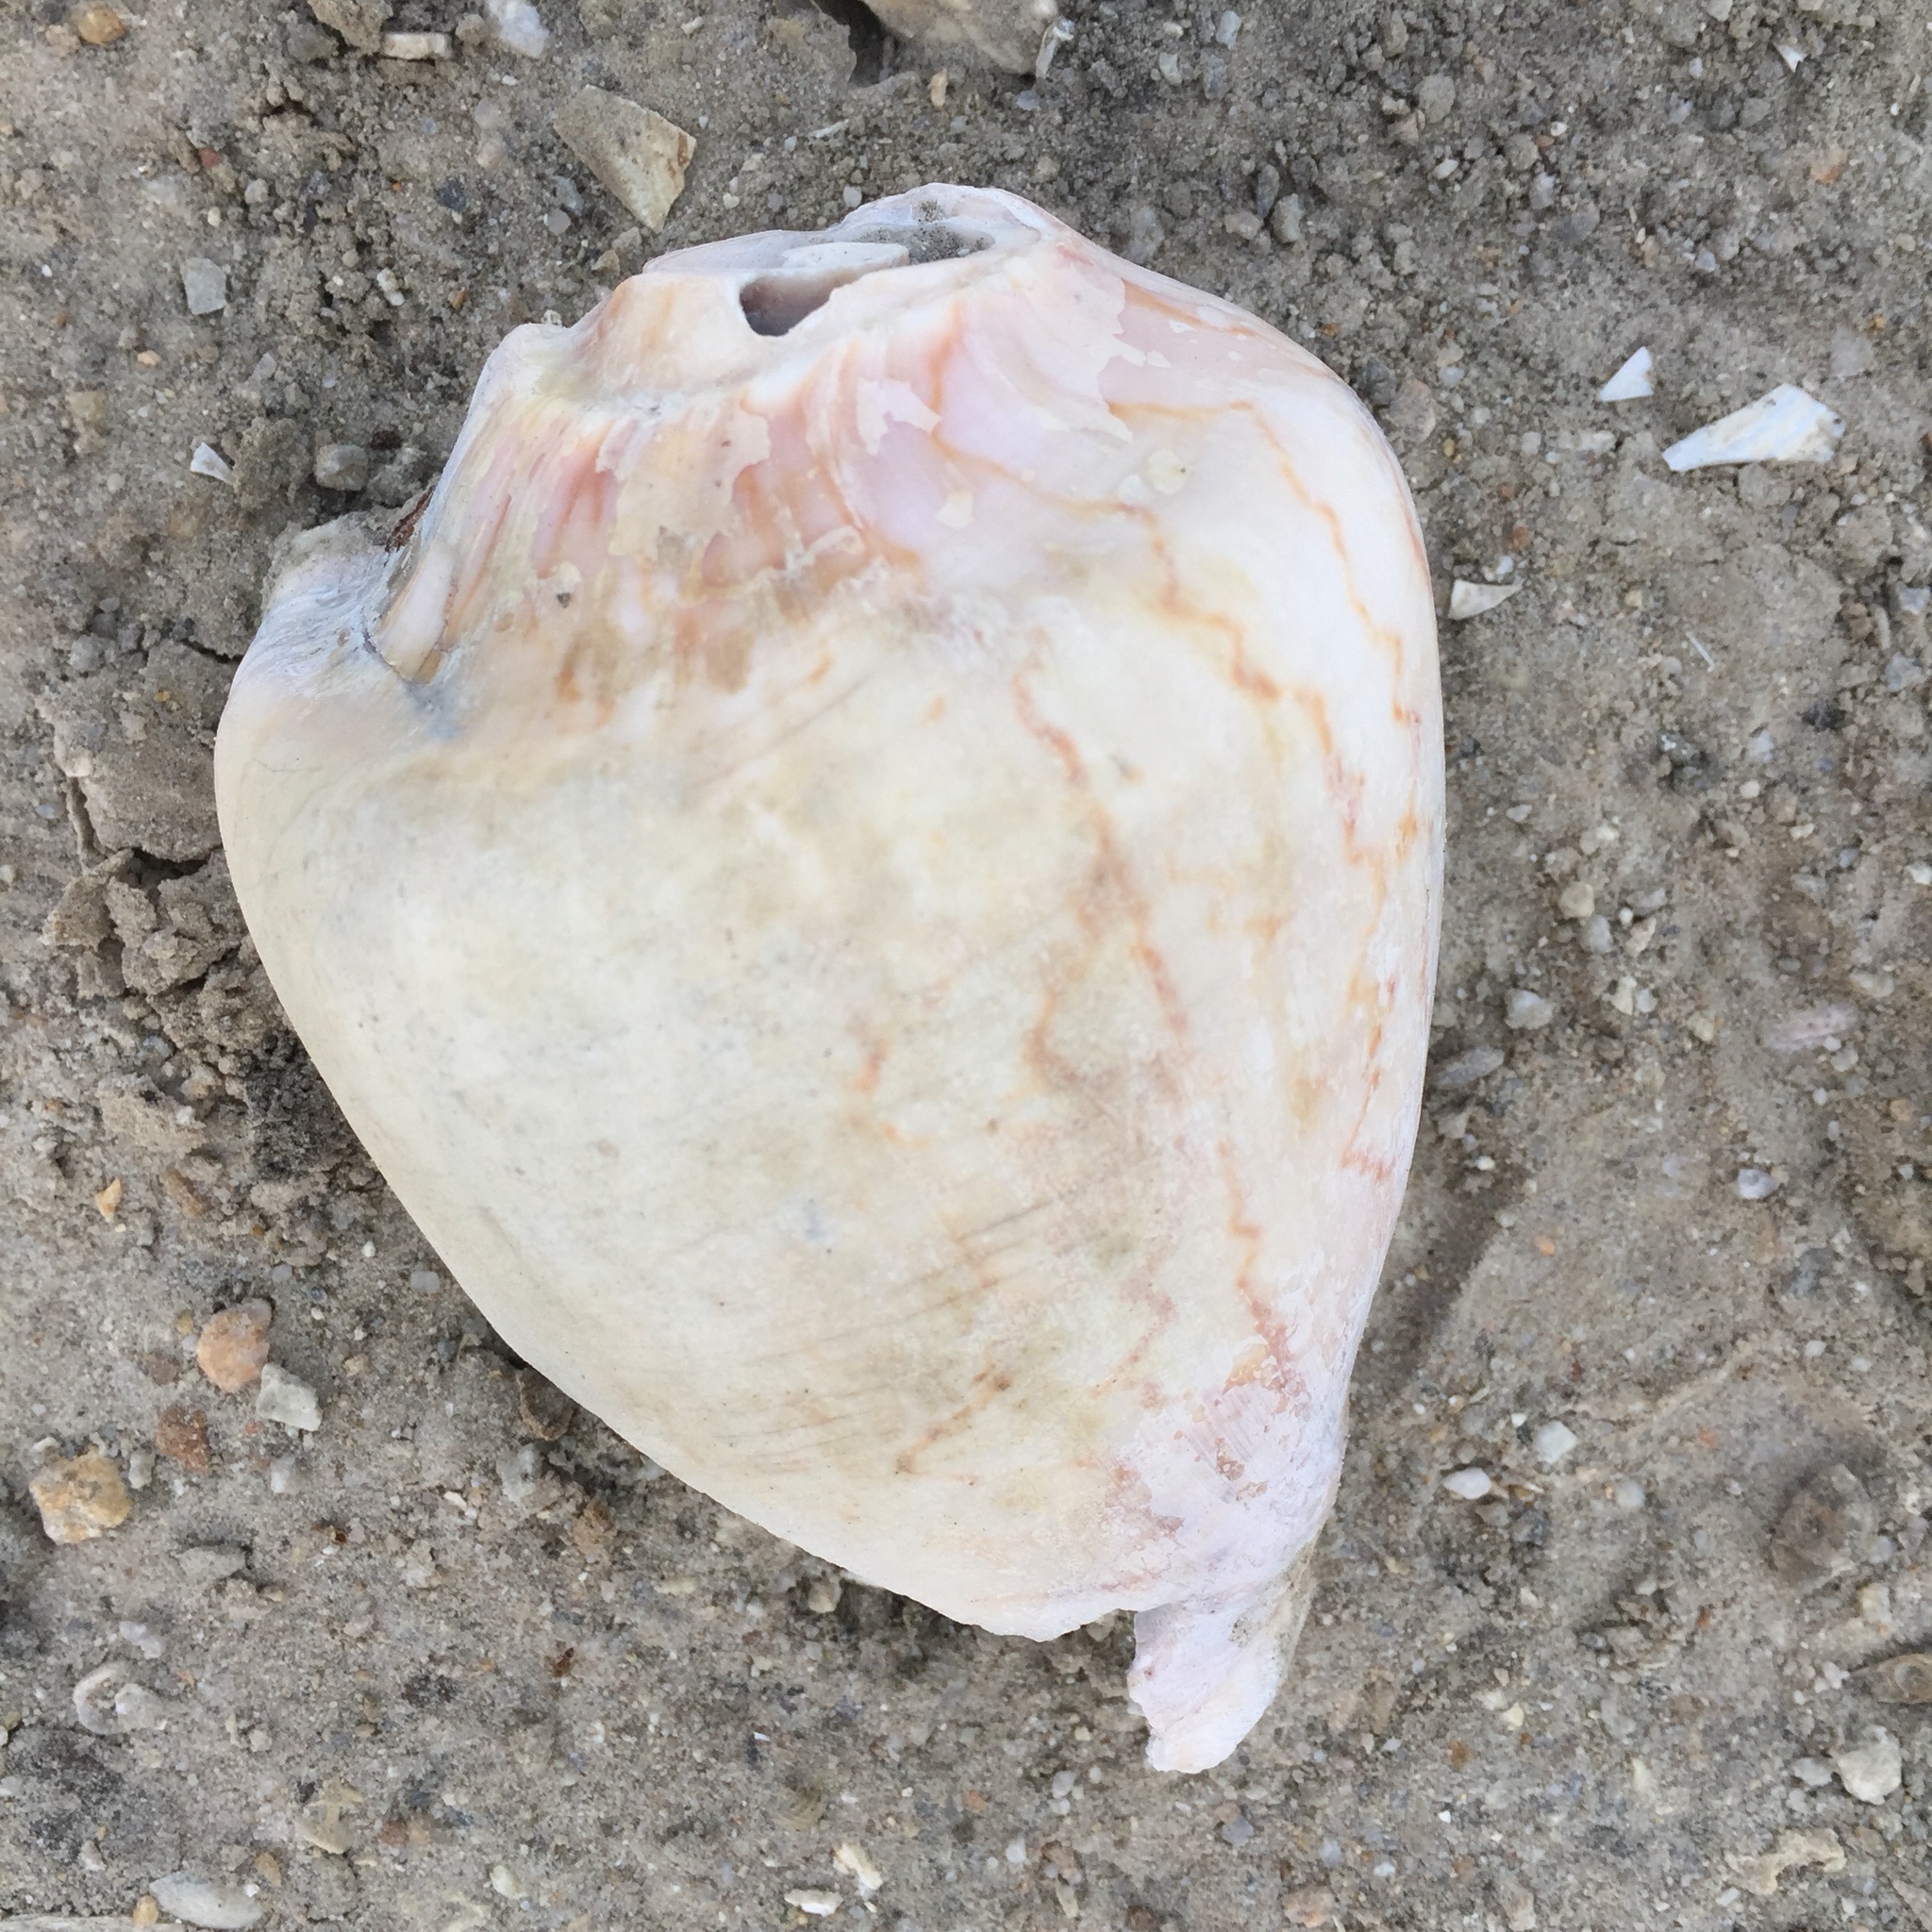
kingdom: Animalia
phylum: Mollusca
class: Gastropoda
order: Neogastropoda
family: Volutidae
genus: Cymbiola
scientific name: Cymbiola nobilis
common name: Noble volute
